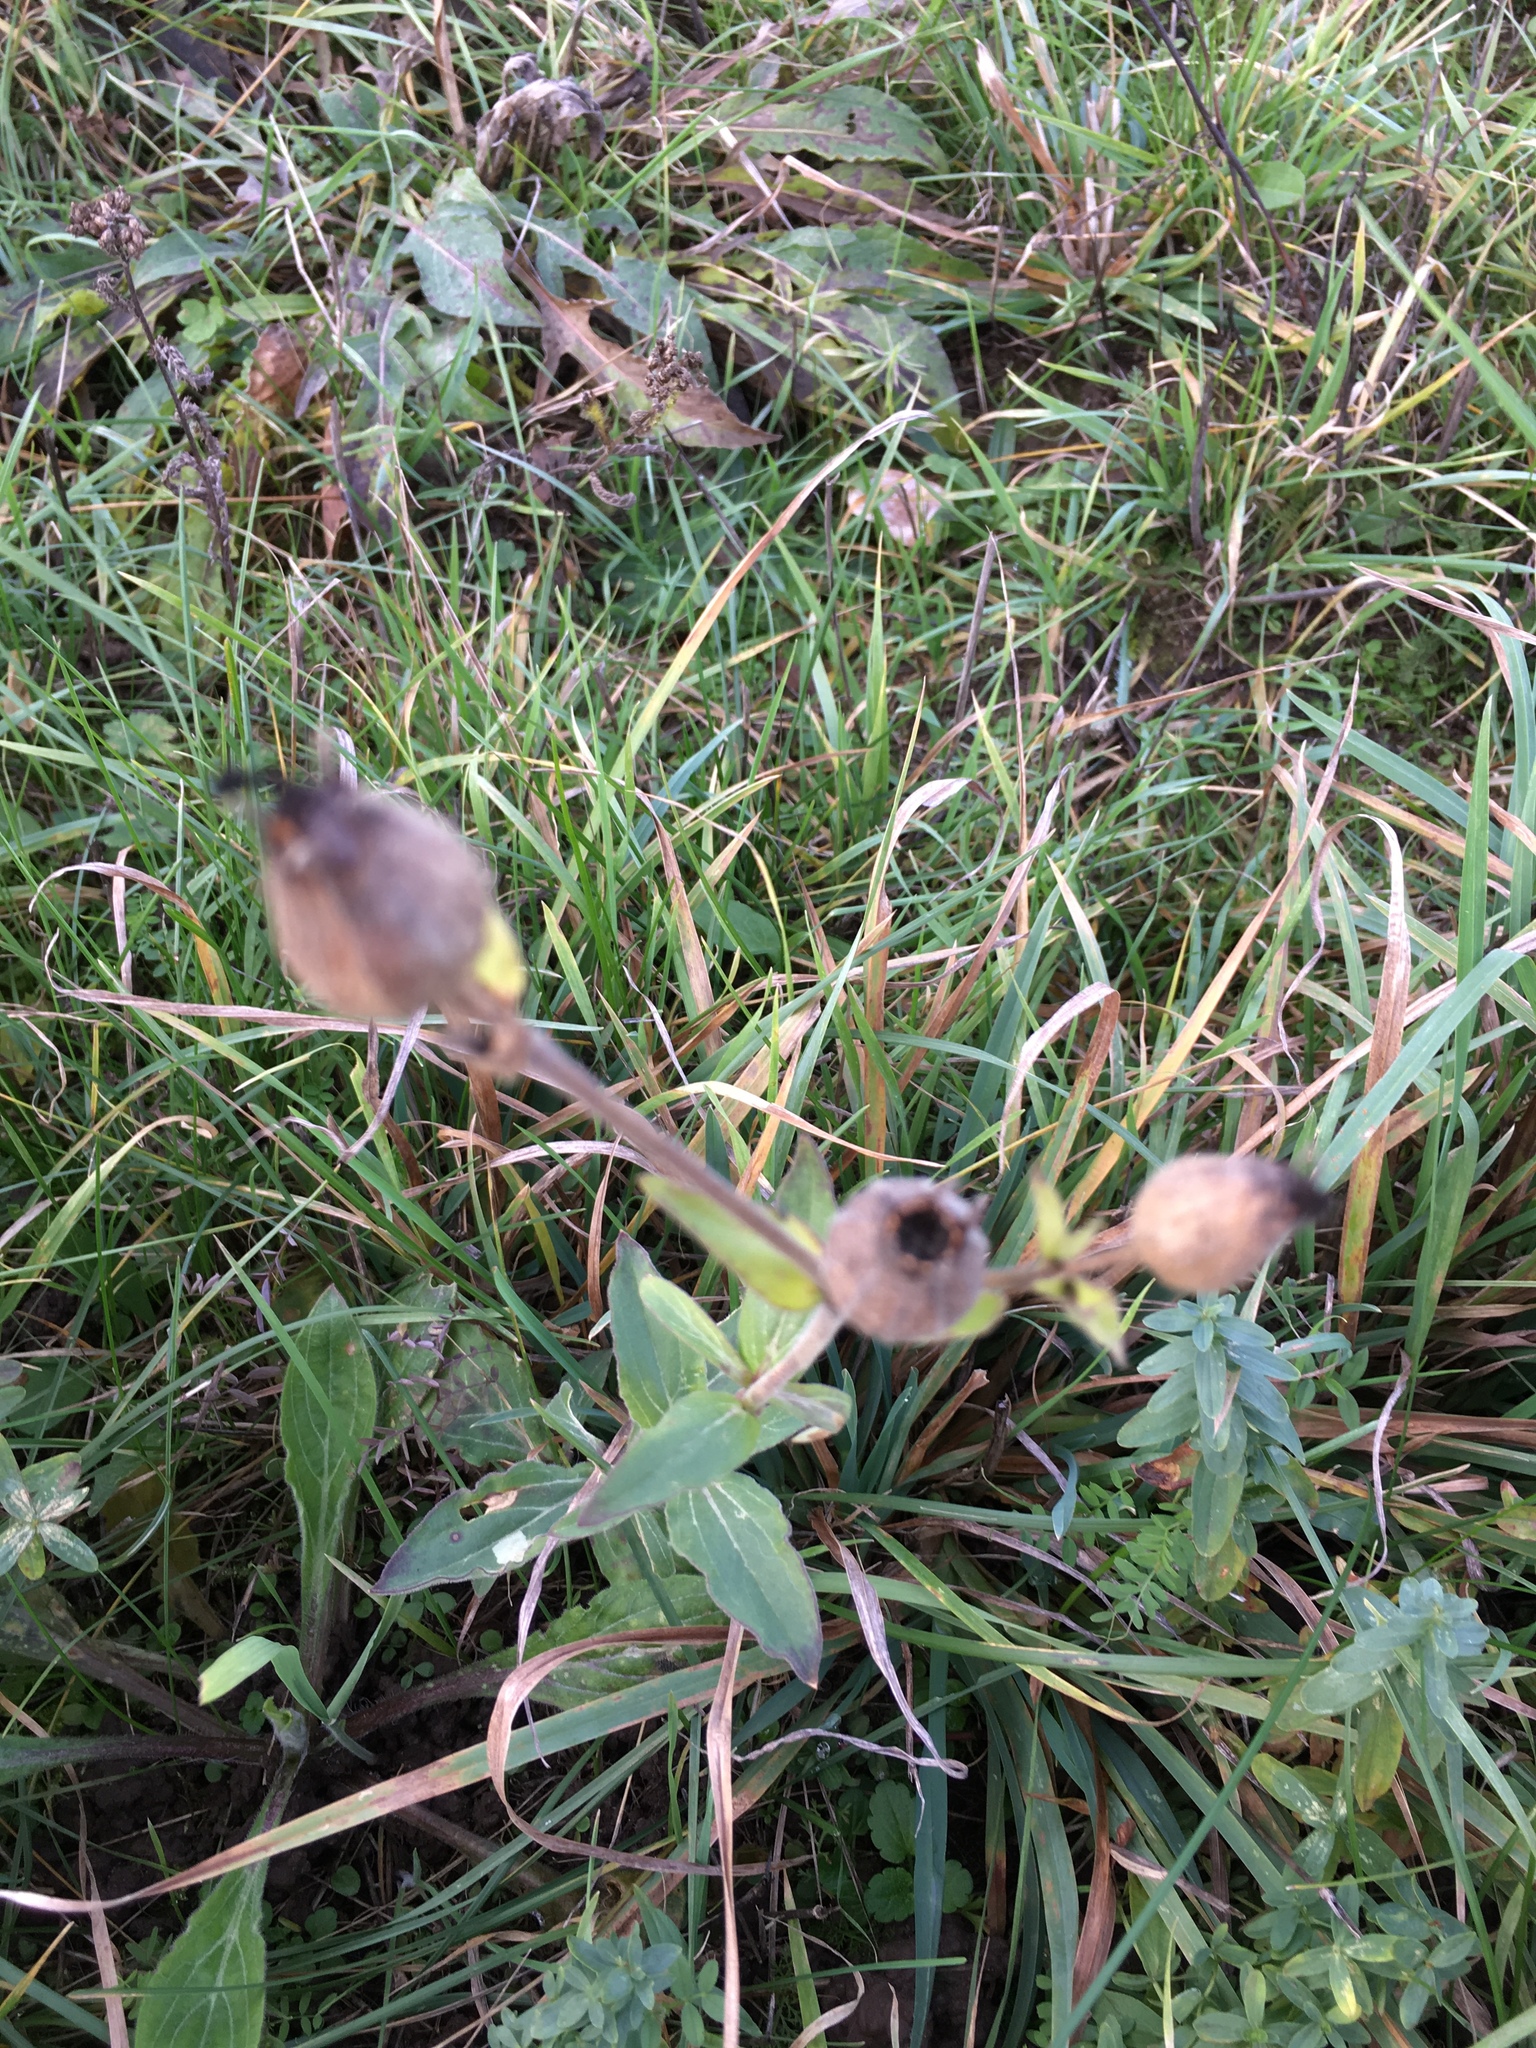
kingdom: Plantae
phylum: Tracheophyta
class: Magnoliopsida
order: Caryophyllales
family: Caryophyllaceae
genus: Silene
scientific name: Silene latifolia
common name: White campion
